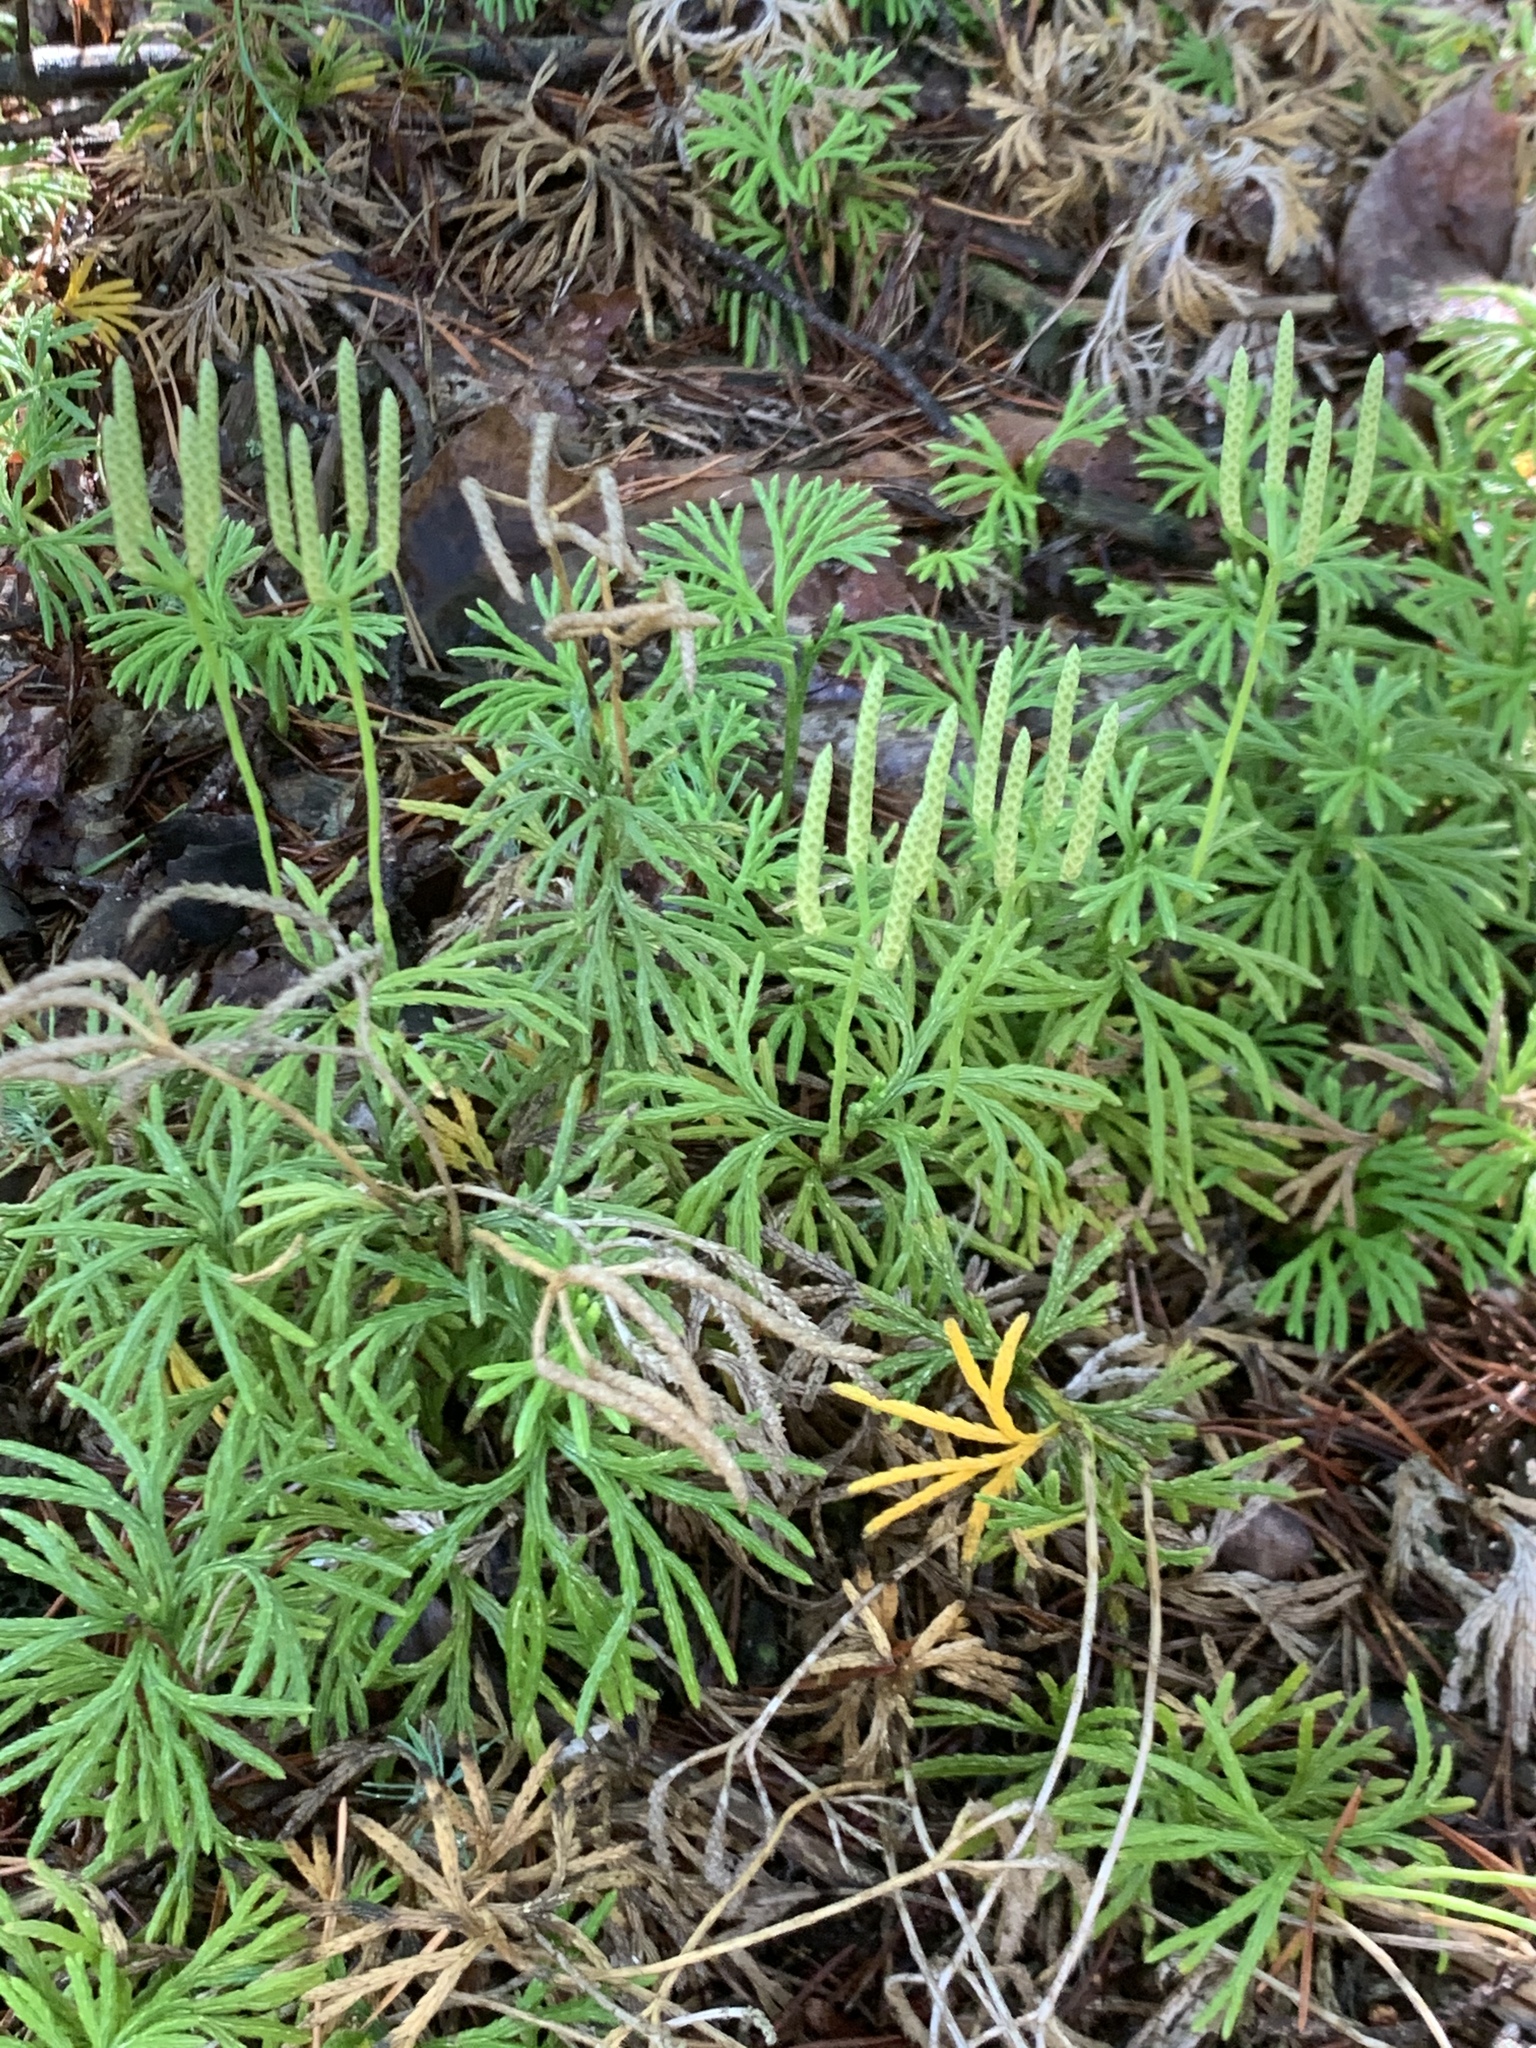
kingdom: Plantae
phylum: Tracheophyta
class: Lycopodiopsida
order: Lycopodiales
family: Lycopodiaceae
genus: Diphasiastrum
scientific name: Diphasiastrum digitatum
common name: Southern running-pine
